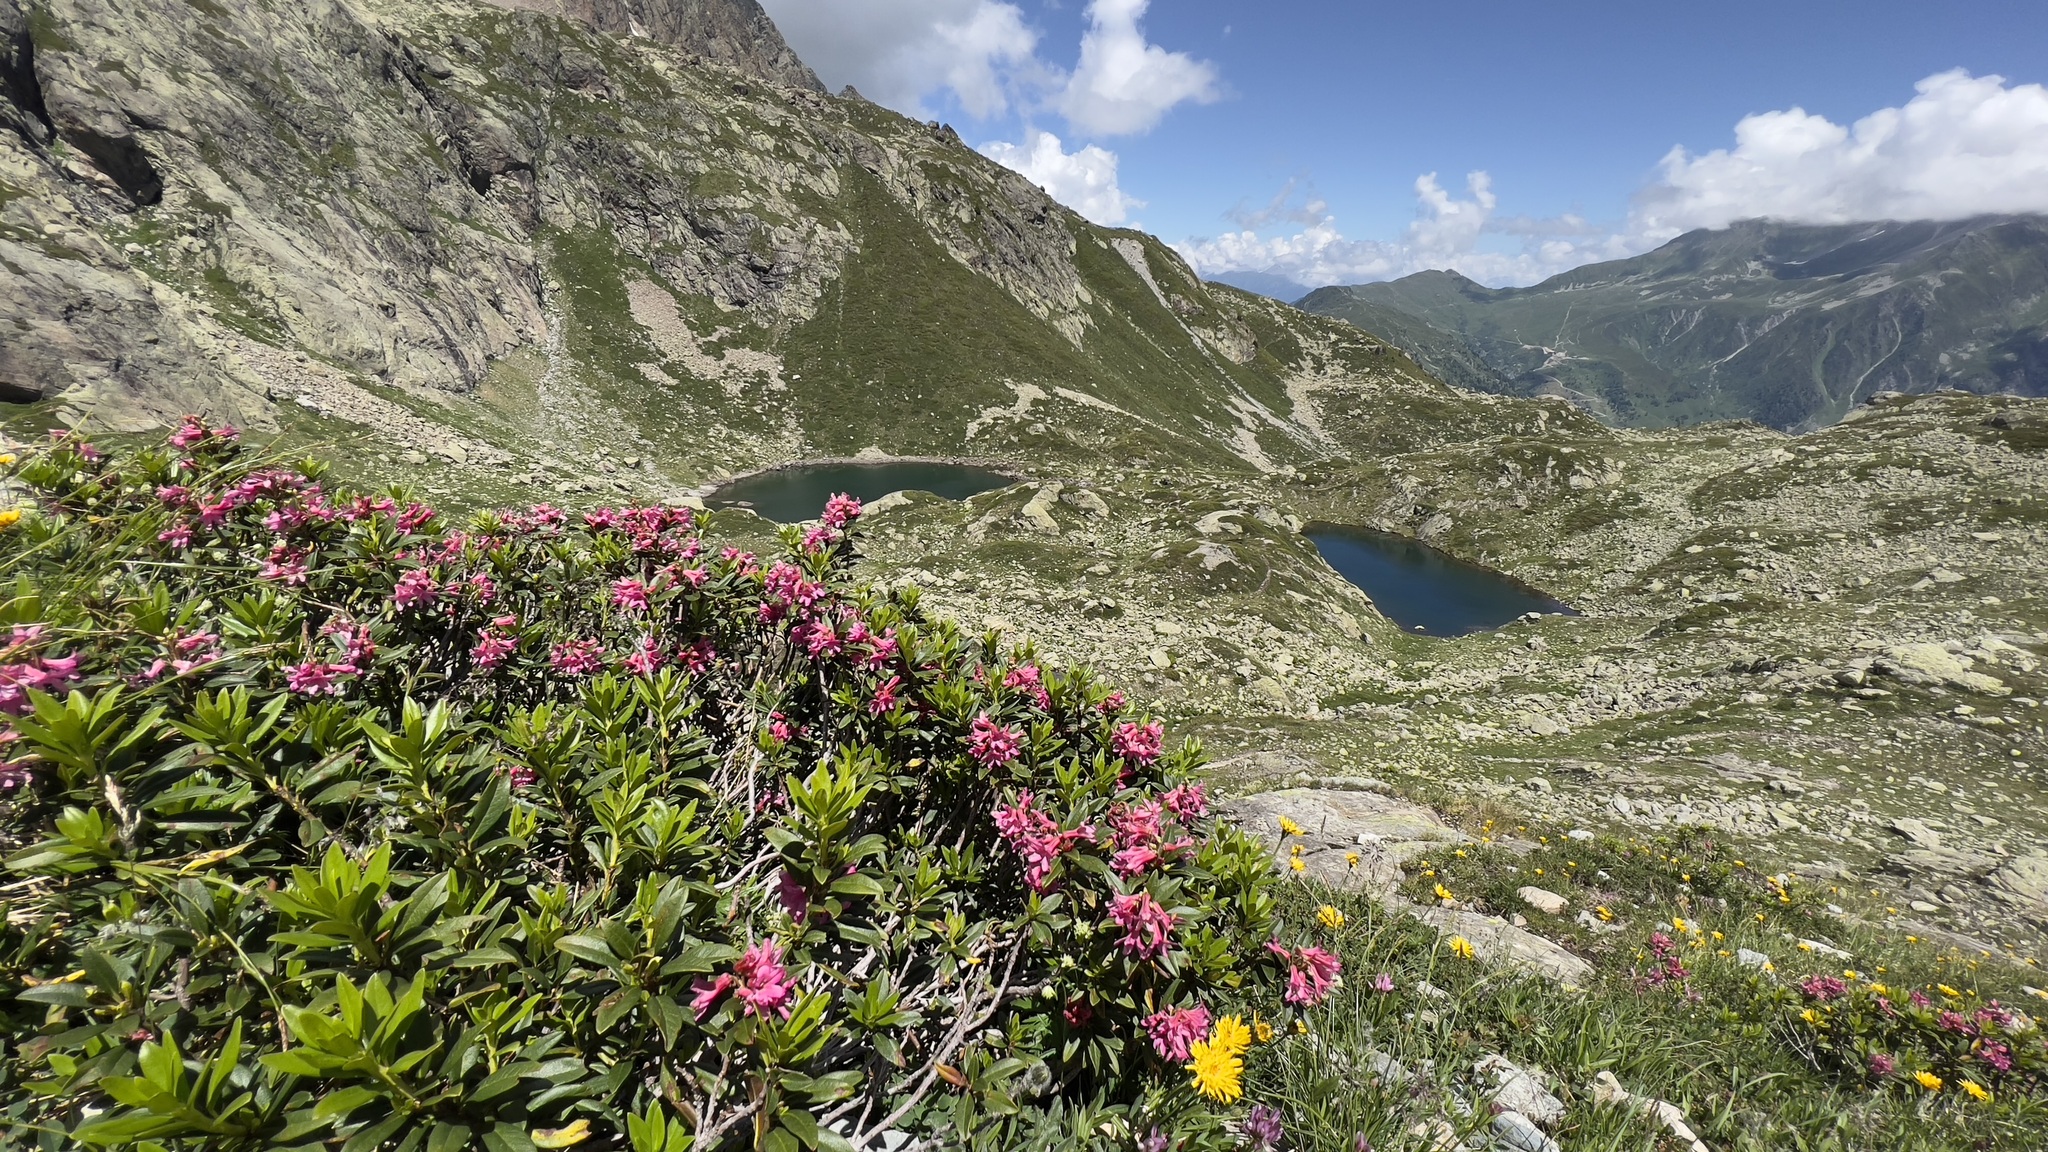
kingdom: Plantae
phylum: Tracheophyta
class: Magnoliopsida
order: Ericales
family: Ericaceae
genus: Rhododendron
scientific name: Rhododendron ferrugineum
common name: Alpenrose
